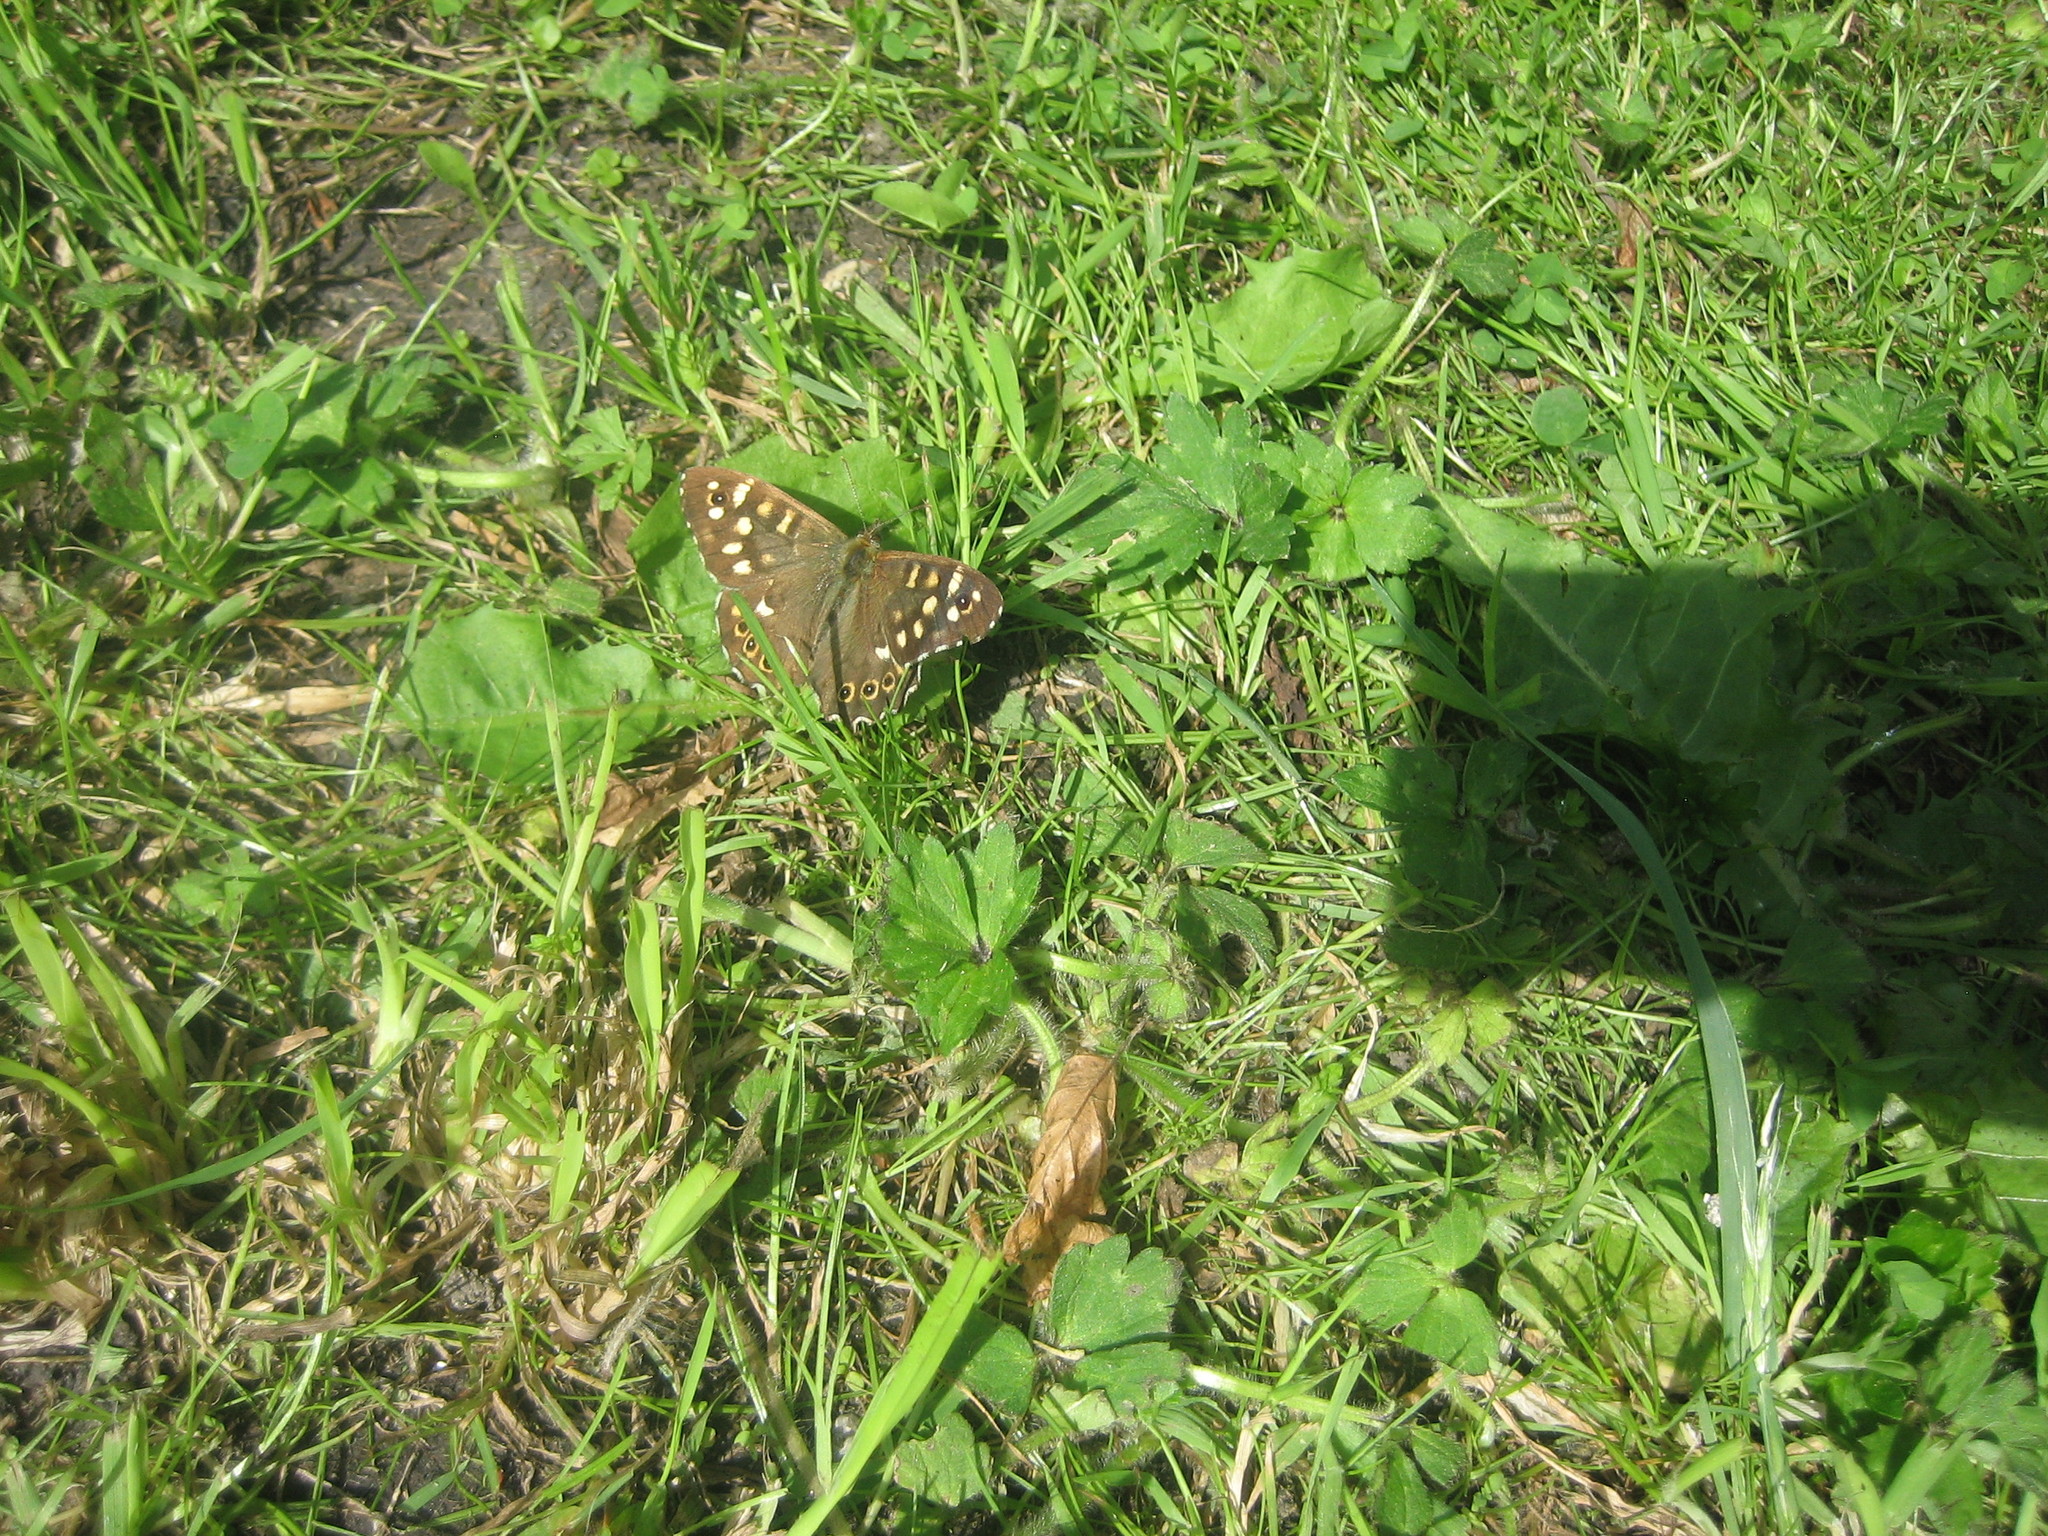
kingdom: Animalia
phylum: Arthropoda
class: Insecta
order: Lepidoptera
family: Nymphalidae
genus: Pararge
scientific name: Pararge aegeria
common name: Speckled wood
